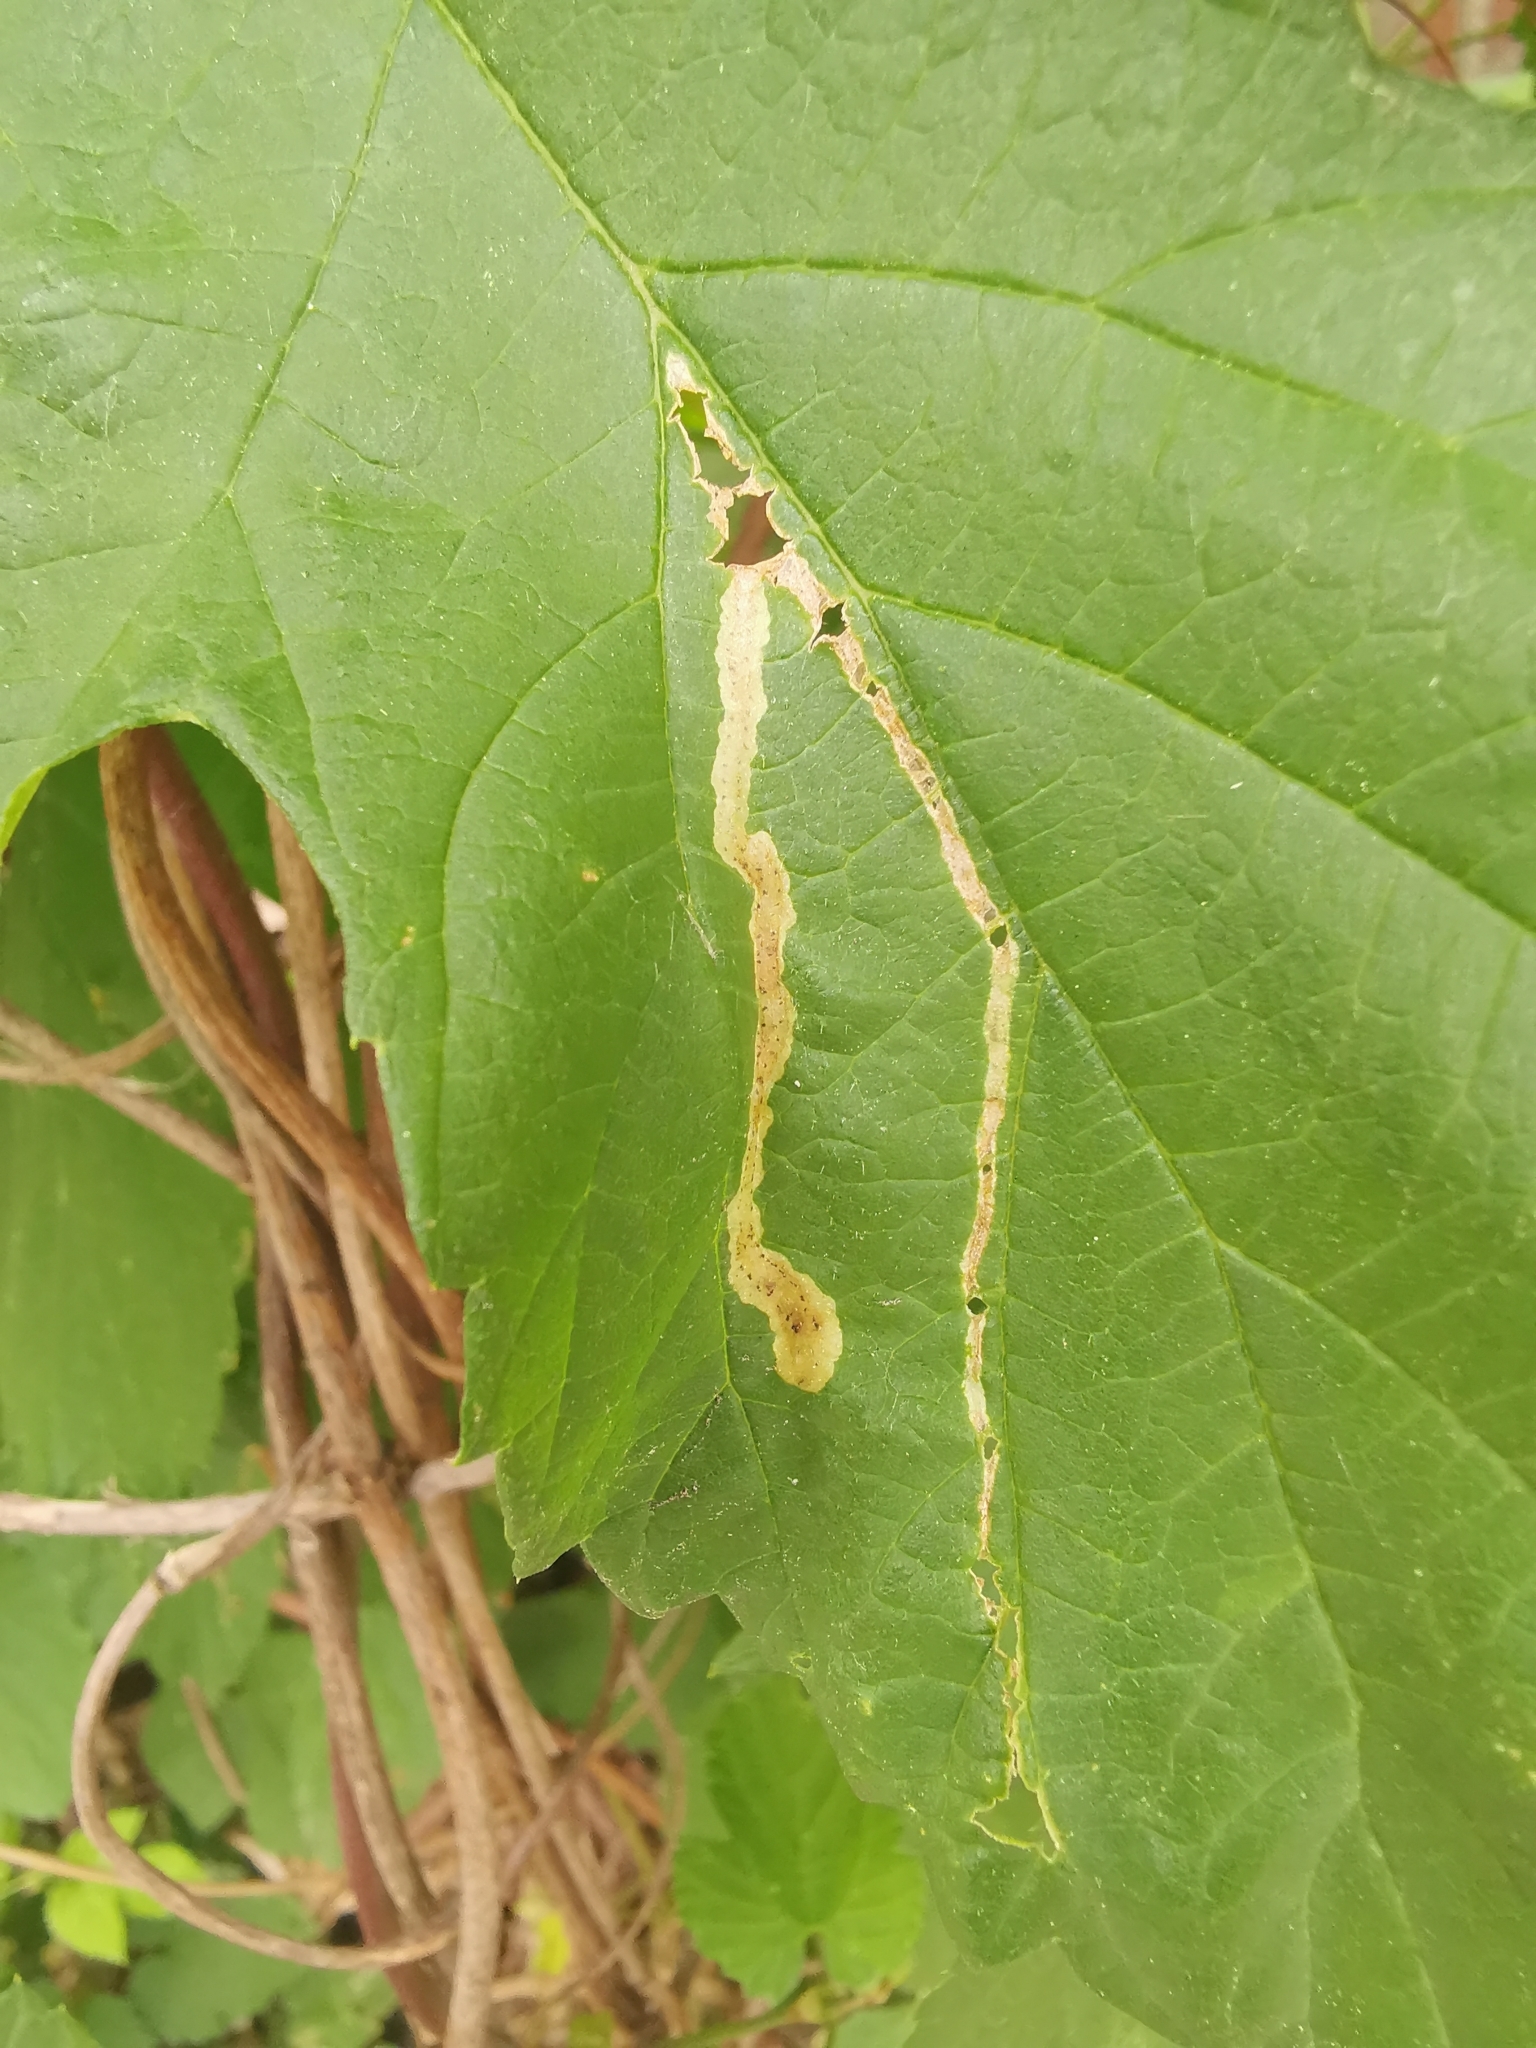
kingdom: Animalia
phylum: Arthropoda
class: Insecta
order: Diptera
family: Agromyzidae
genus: Agromyza
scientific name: Agromyza igniceps
